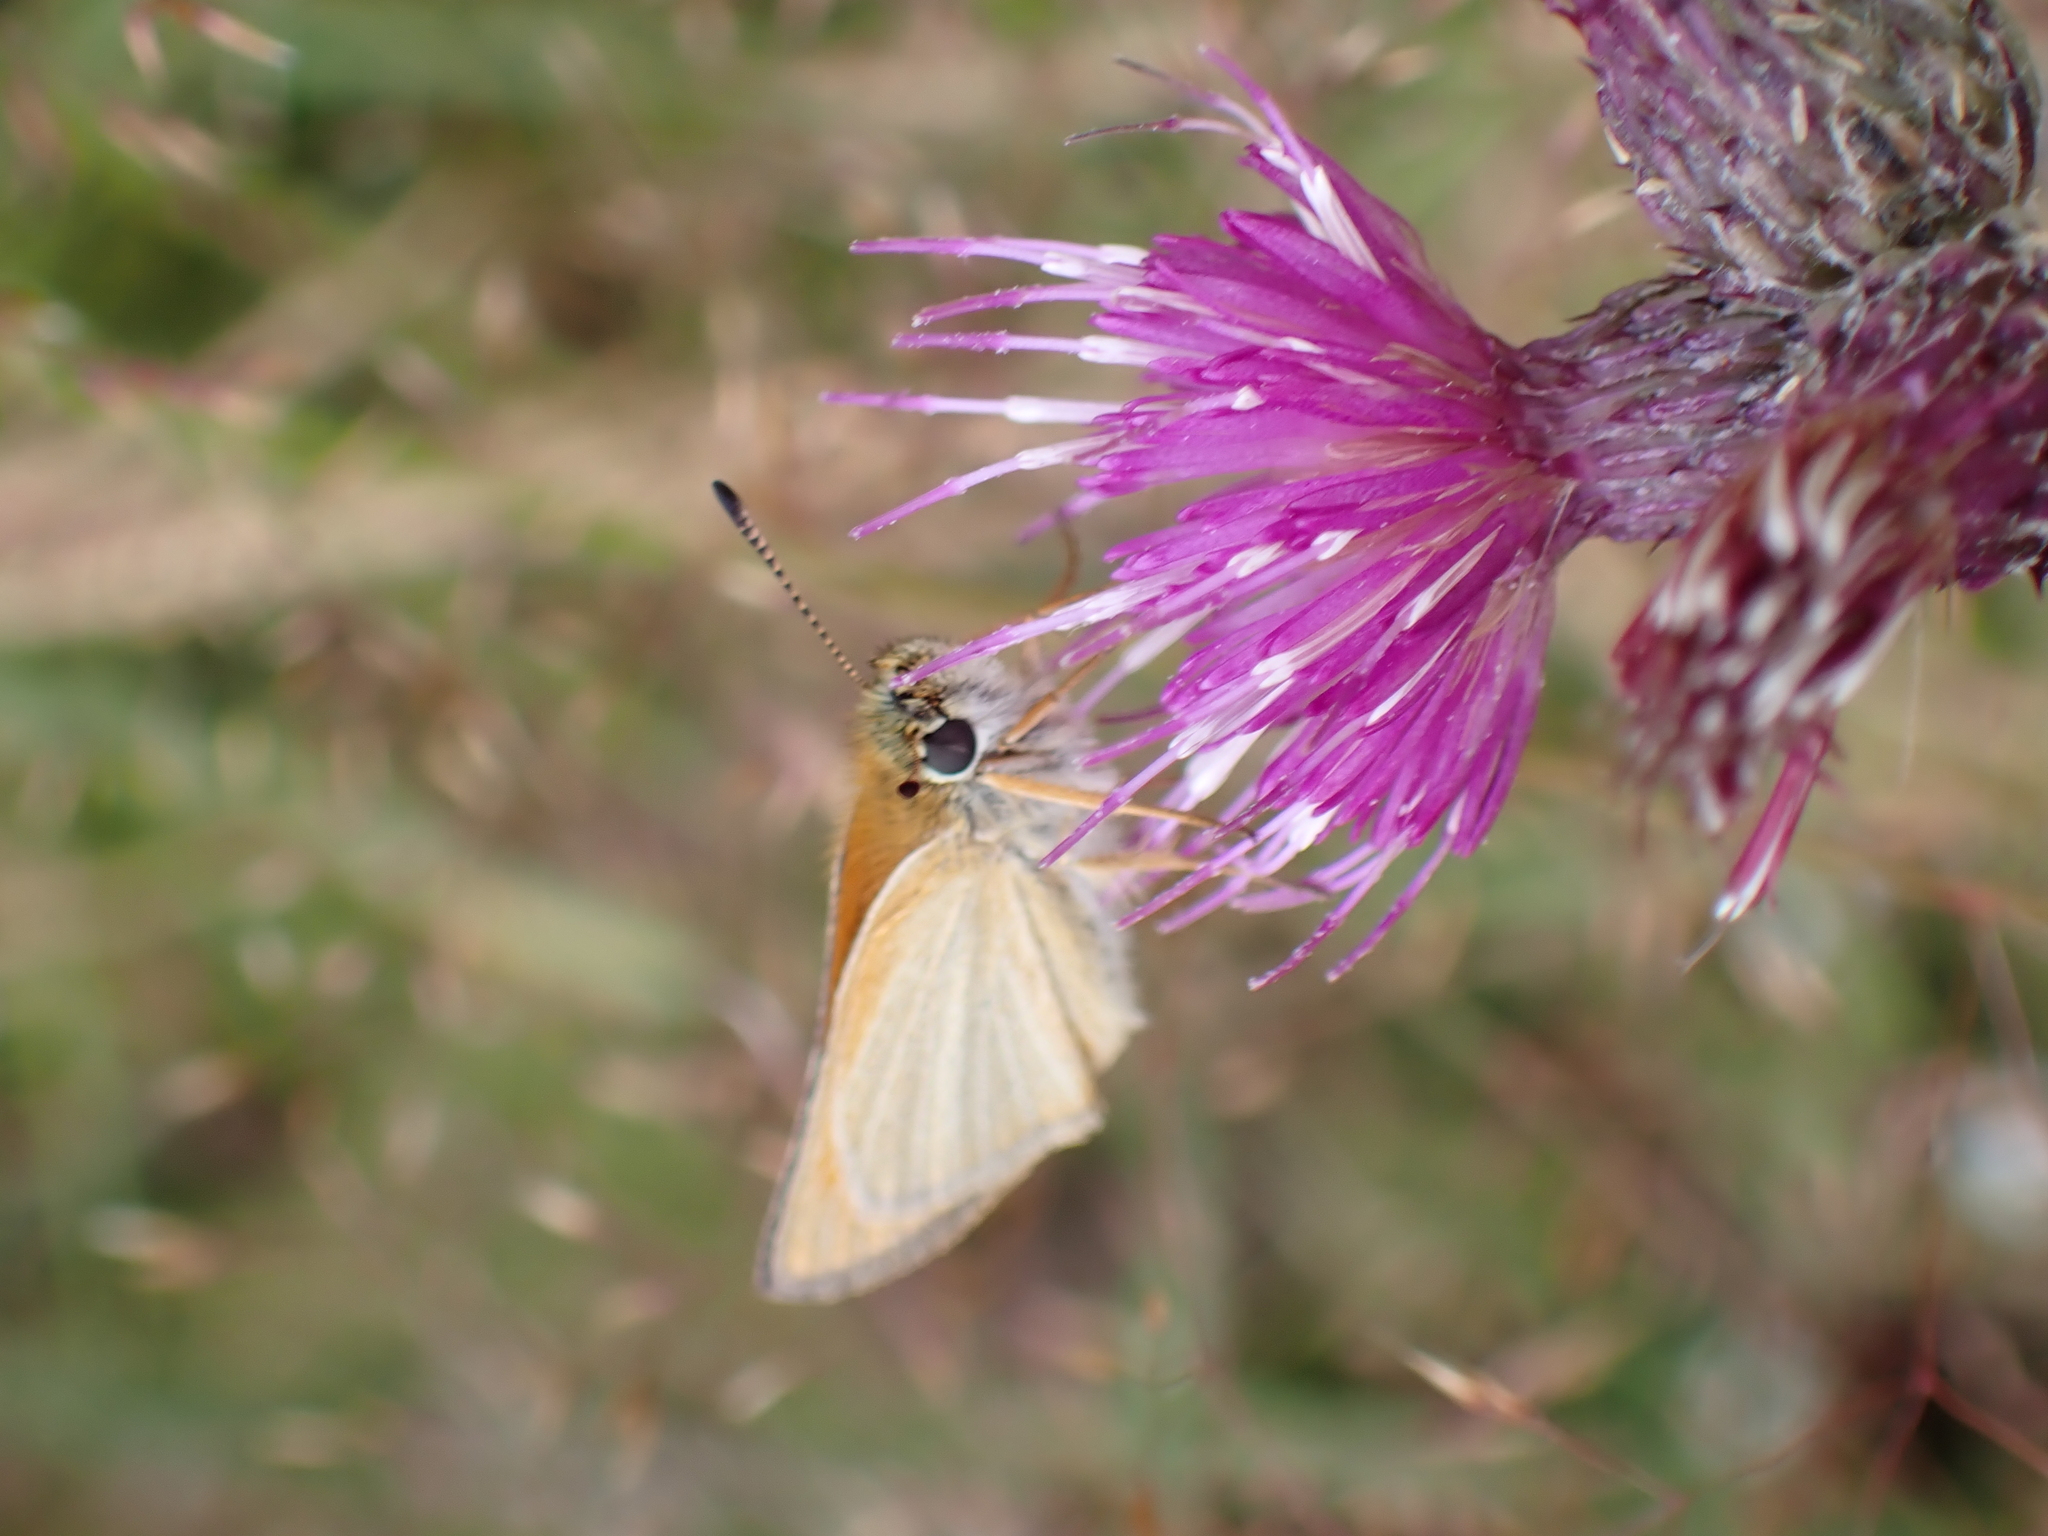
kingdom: Animalia
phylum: Arthropoda
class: Insecta
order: Lepidoptera
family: Hesperiidae
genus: Thymelicus
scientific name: Thymelicus lineola
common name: Essex skipper
